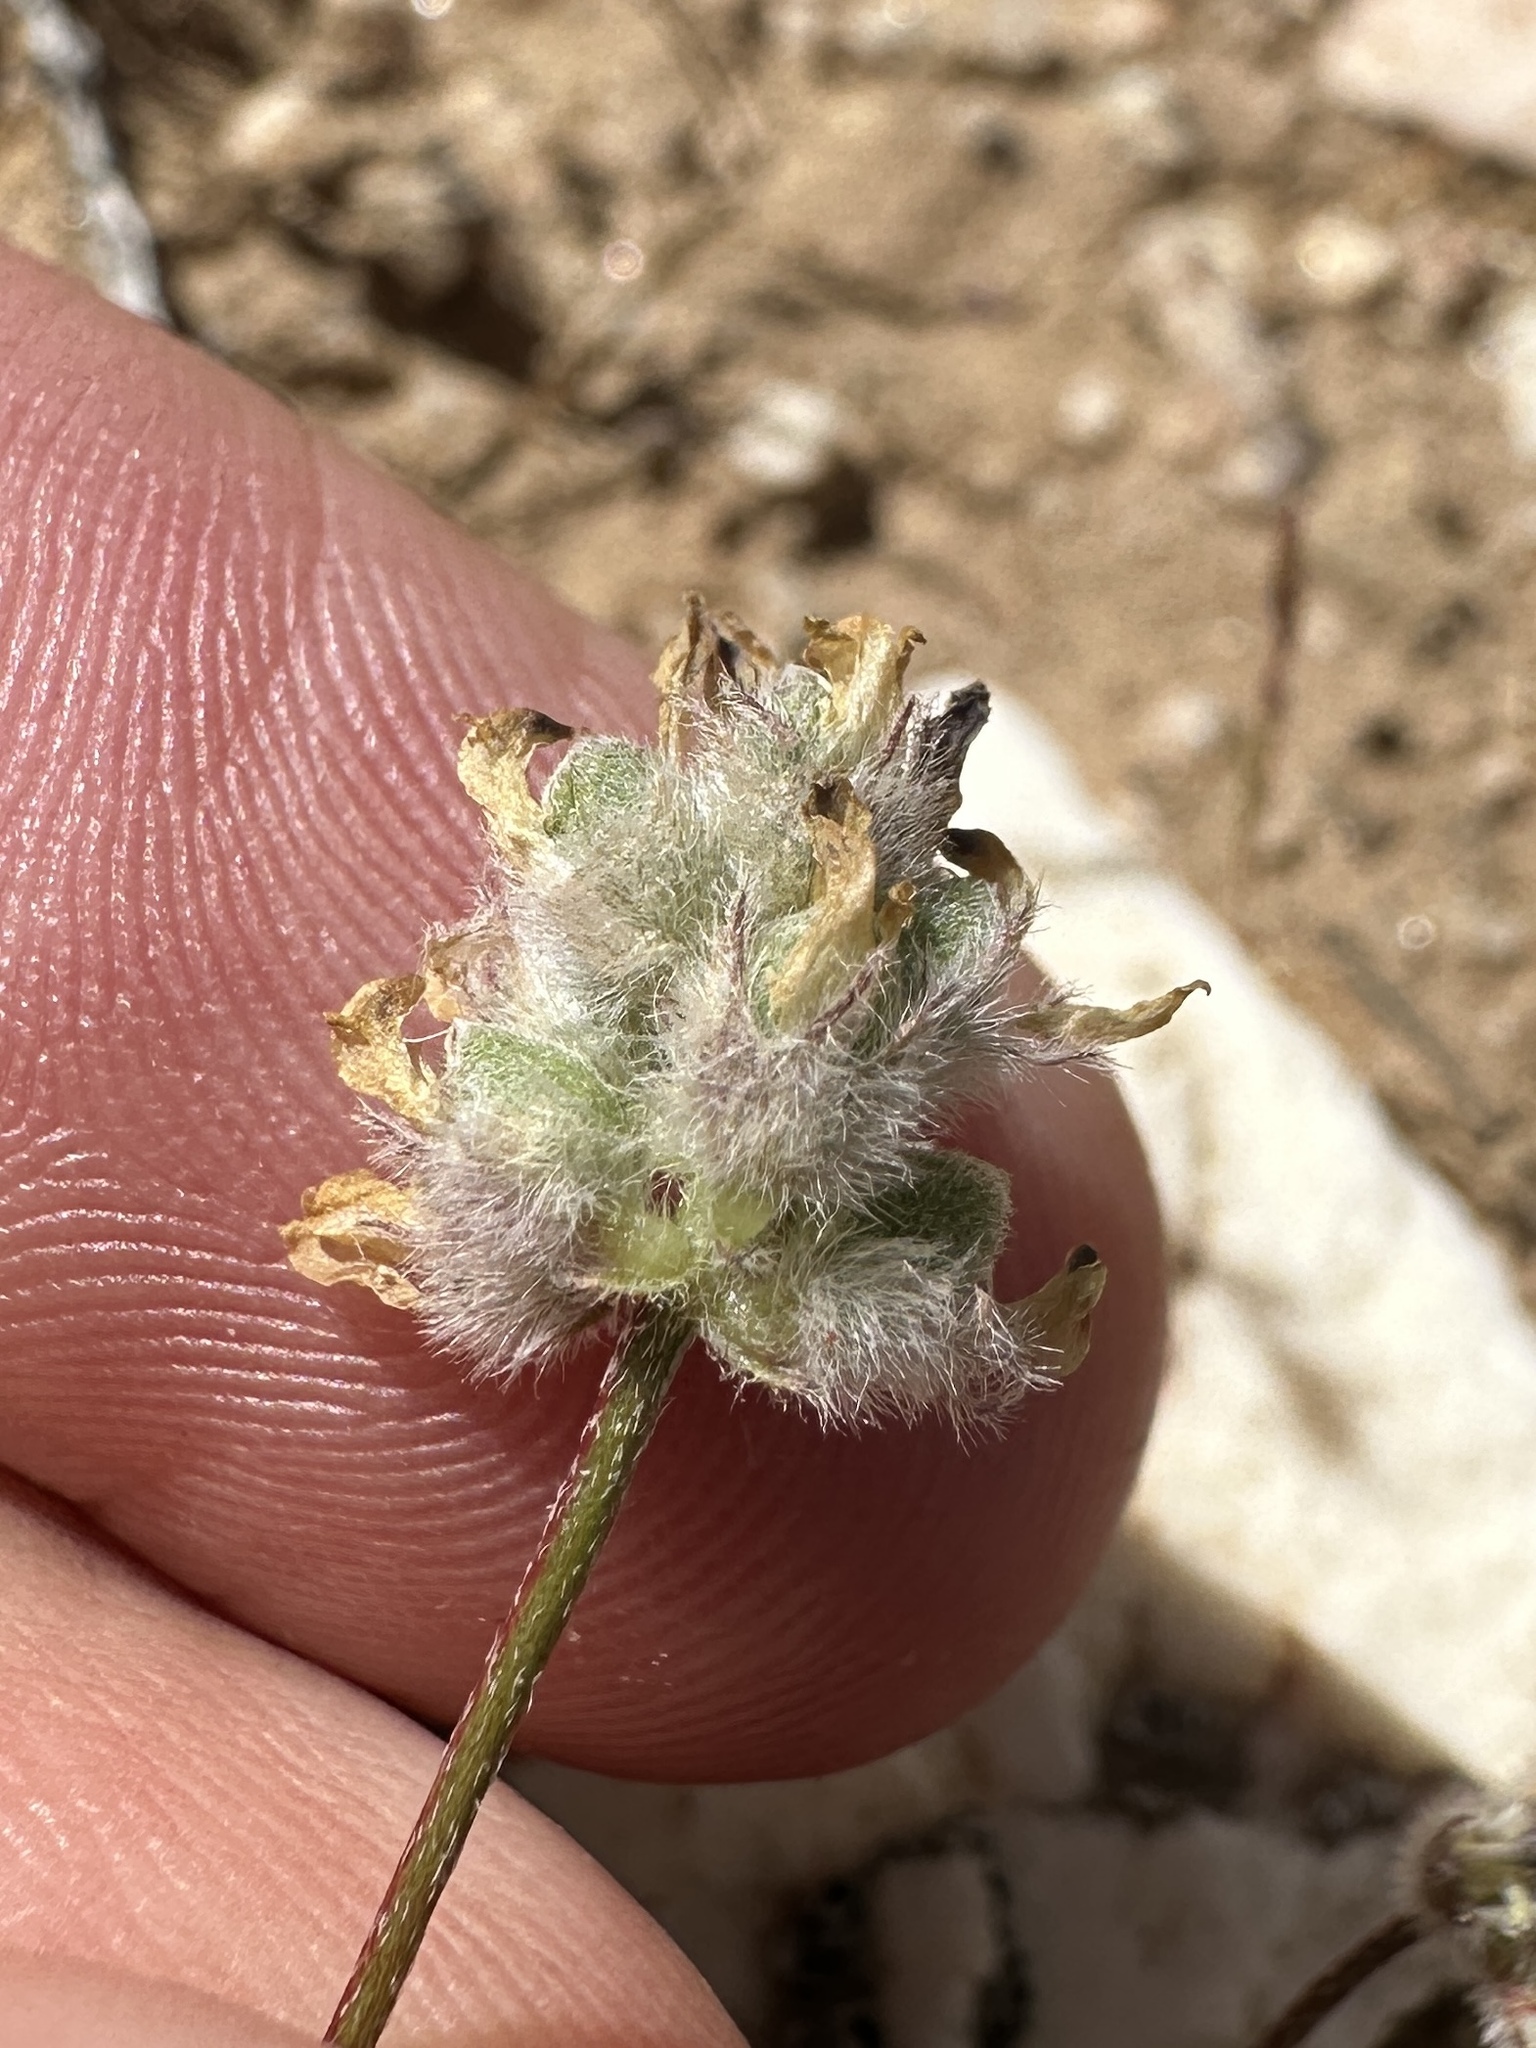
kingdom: Plantae
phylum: Tracheophyta
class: Magnoliopsida
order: Fabales
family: Fabaceae
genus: Astragalus
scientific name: Astragalus didymocarpus
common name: Dwarf white milkvetch
